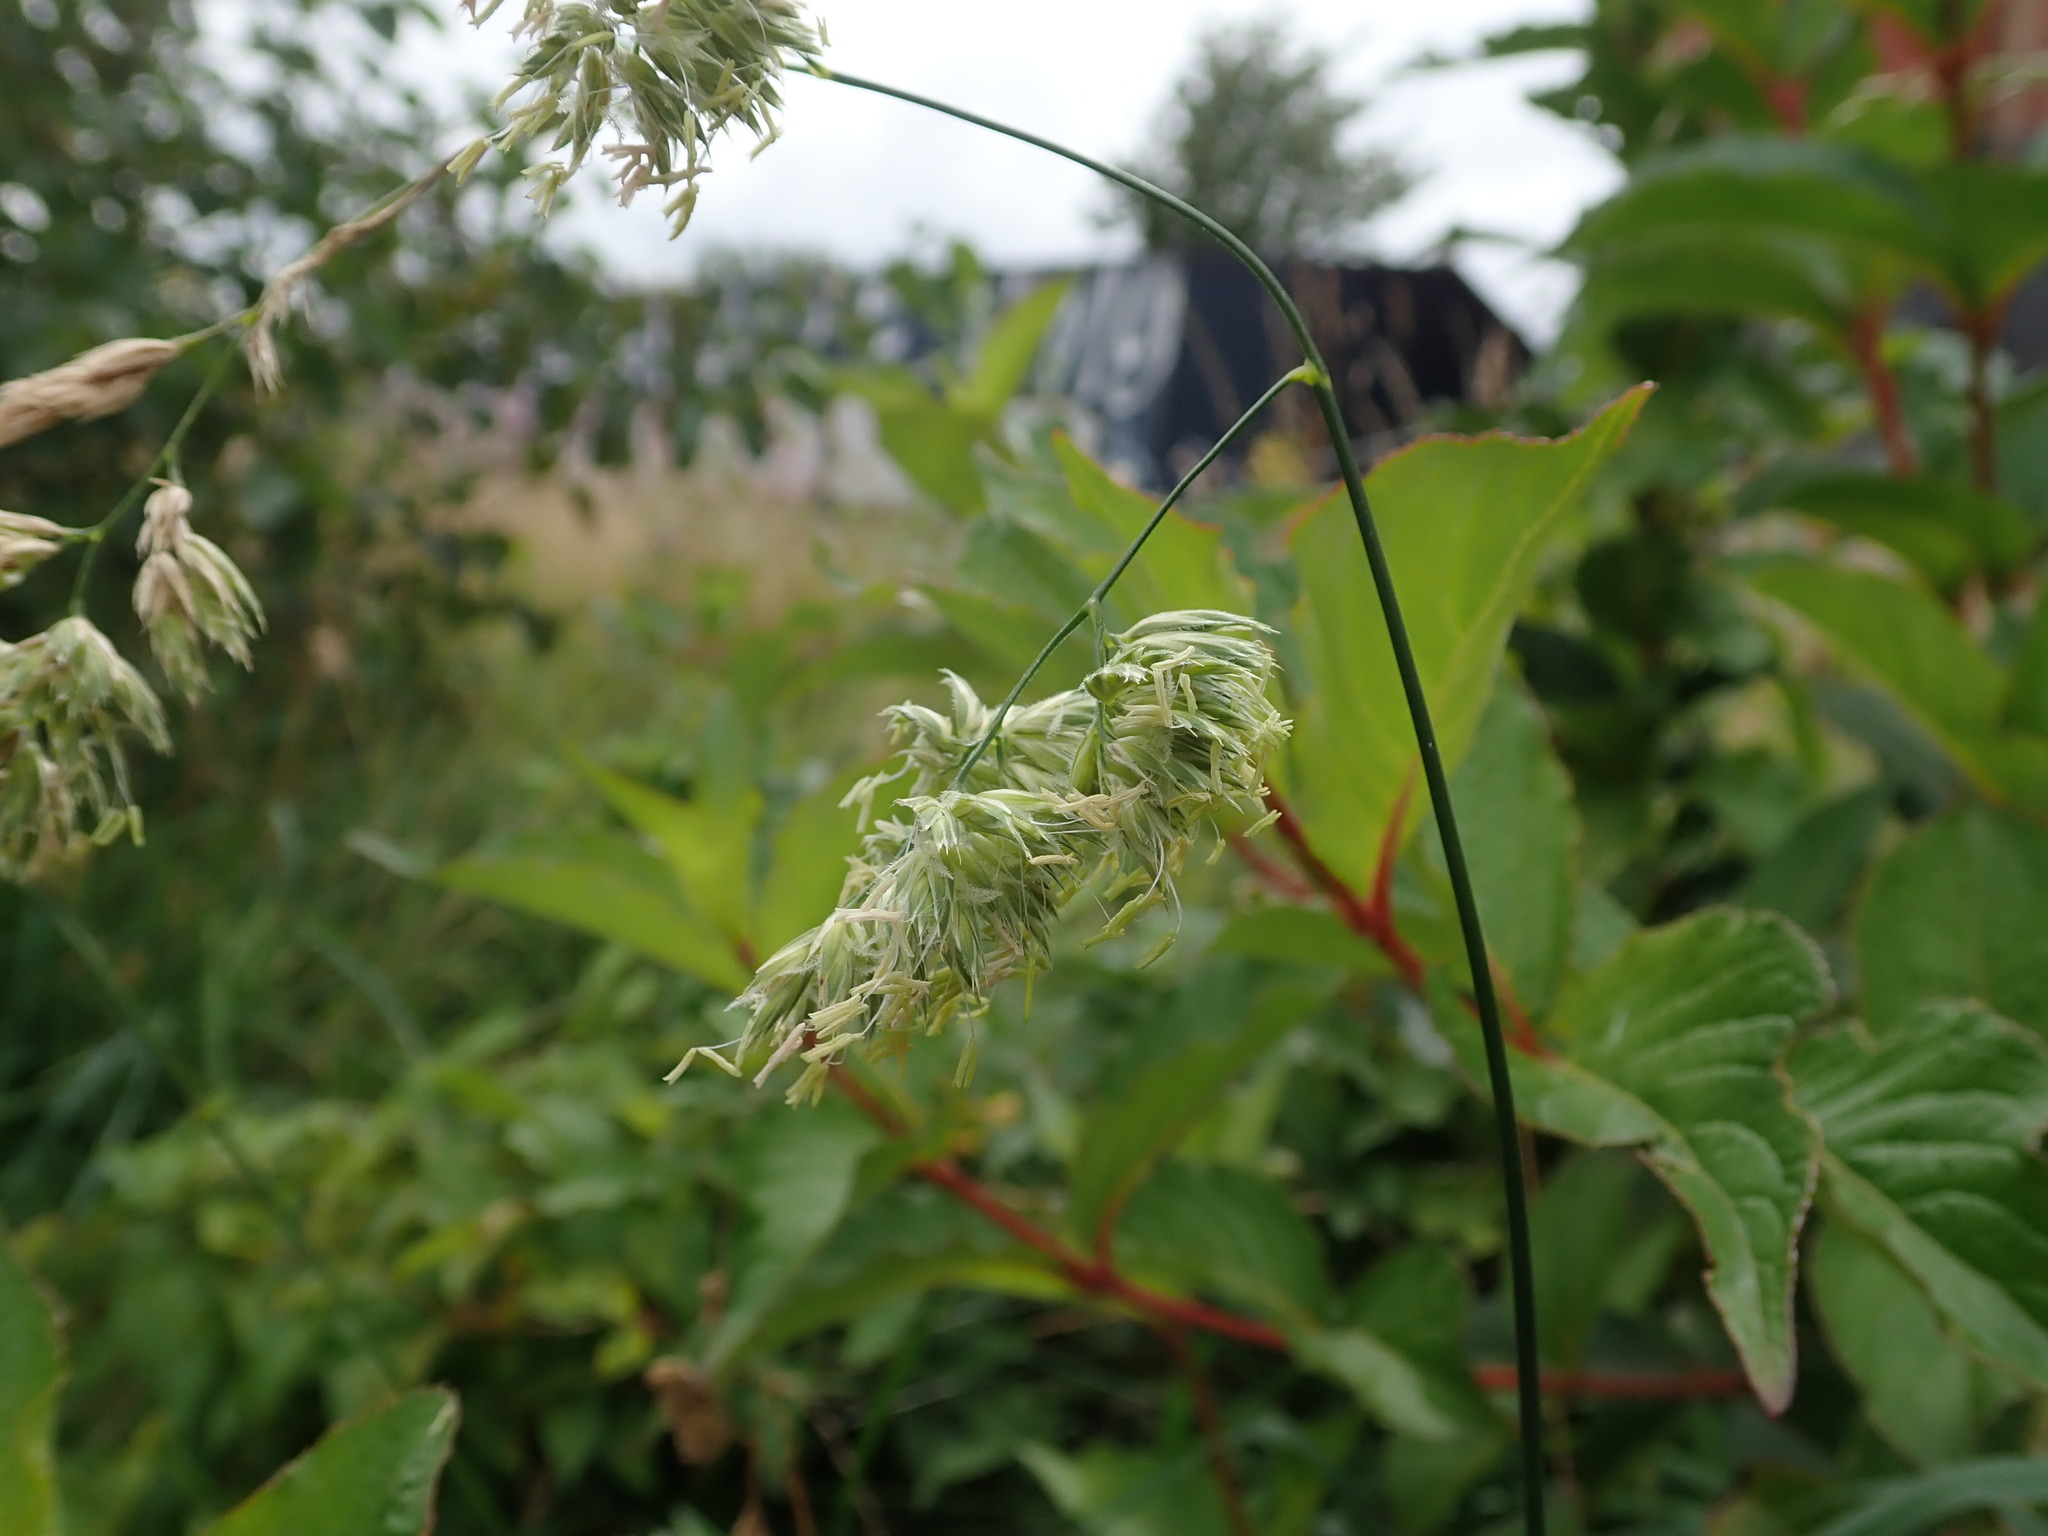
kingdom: Plantae
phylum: Tracheophyta
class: Liliopsida
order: Poales
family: Poaceae
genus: Dactylis
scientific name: Dactylis glomerata
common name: Orchardgrass
